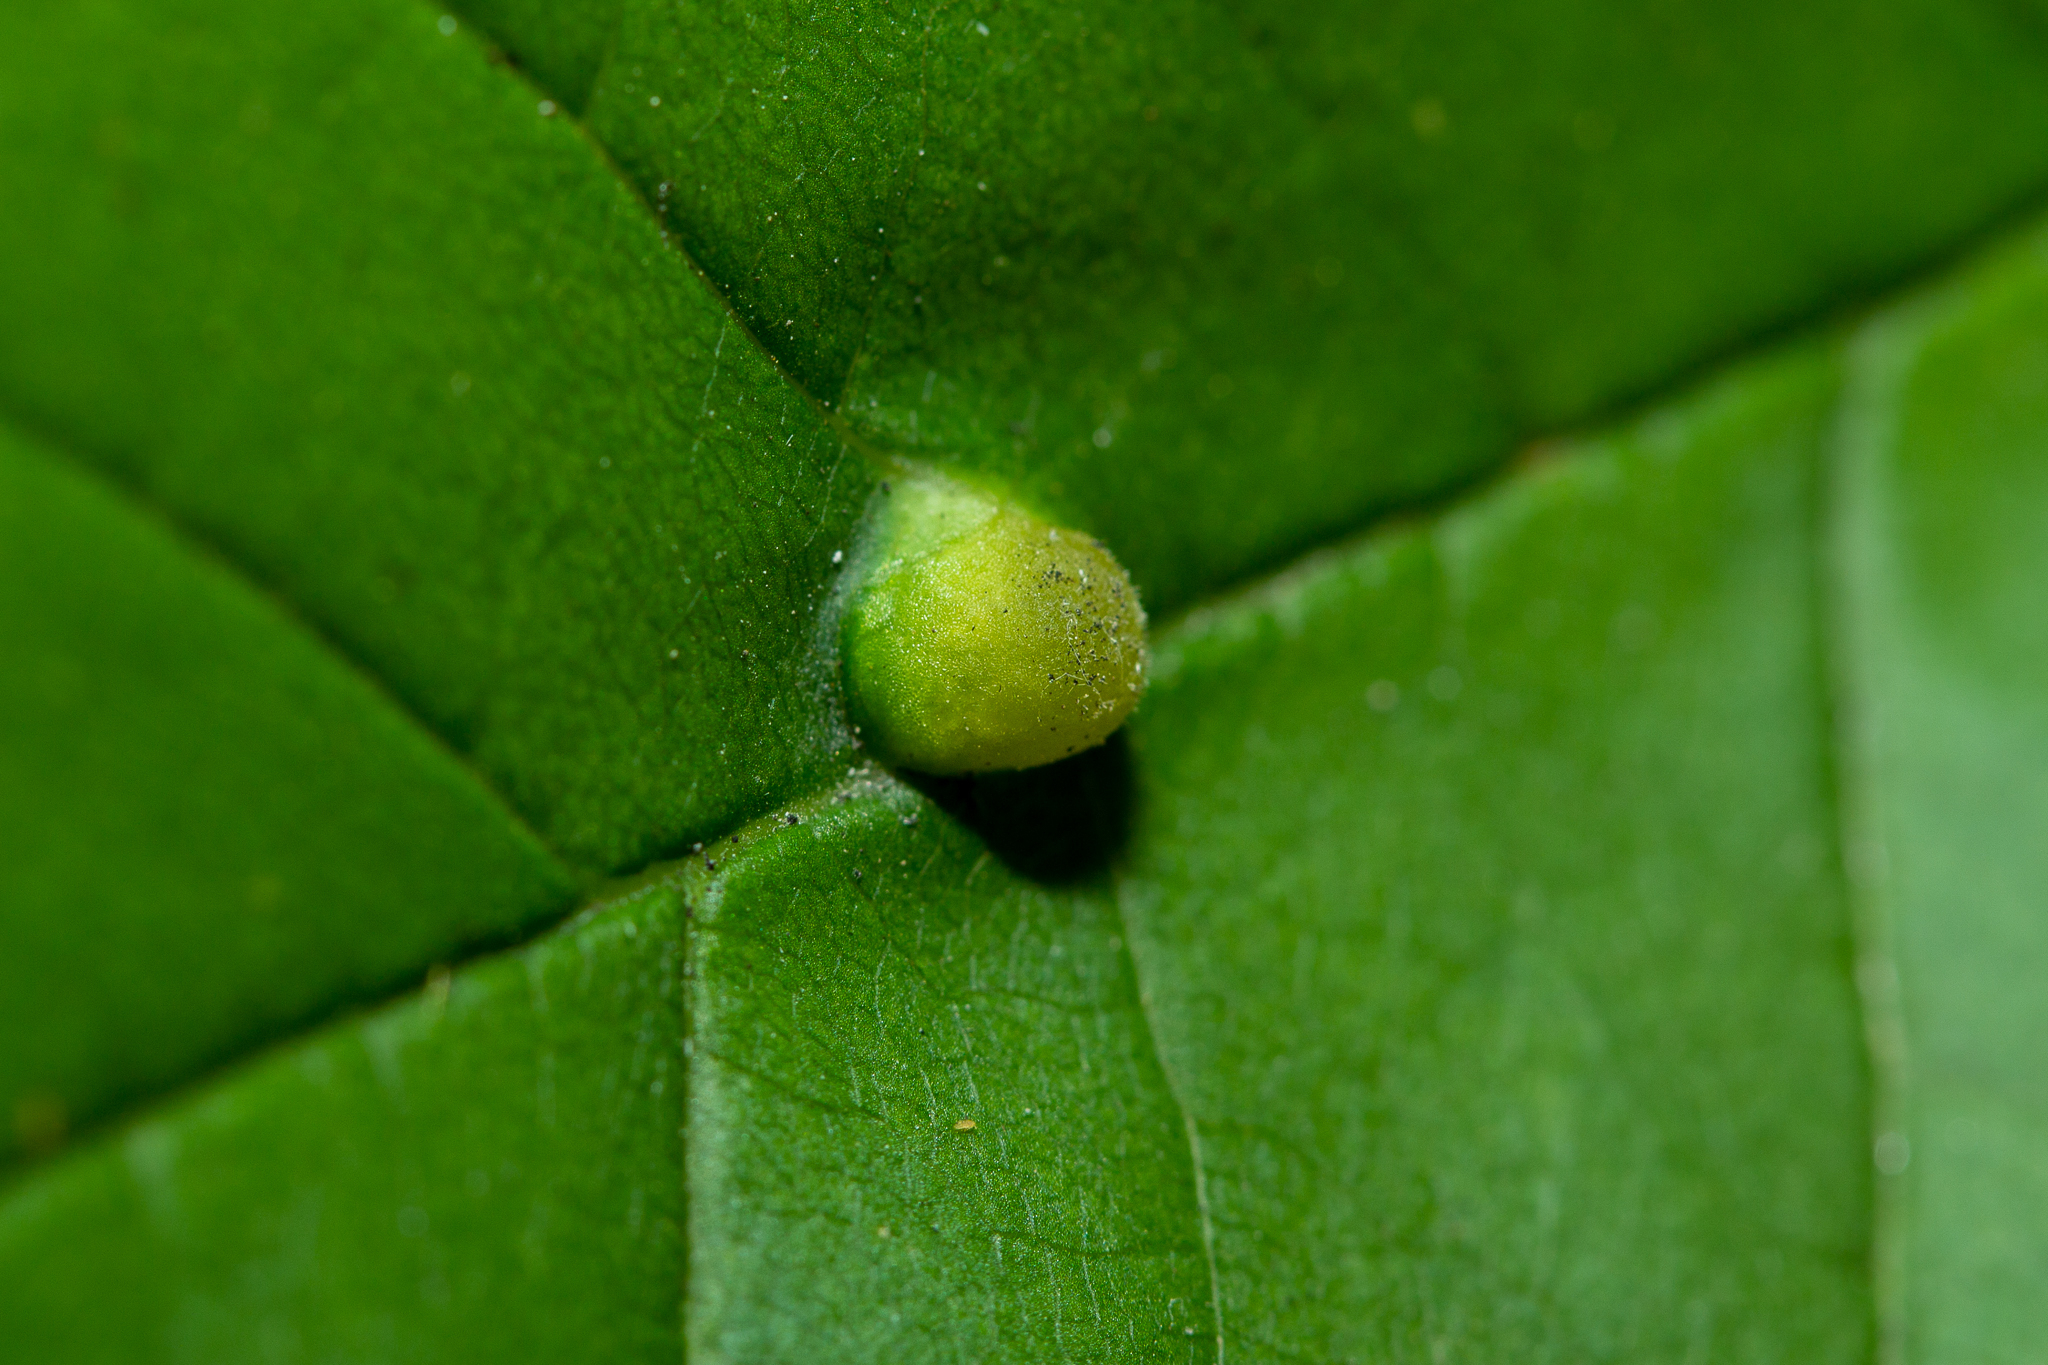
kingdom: Animalia
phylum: Arthropoda
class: Insecta
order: Diptera
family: Cecidomyiidae
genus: Dasineura
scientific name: Dasineura pellex
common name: Ash bullet gall midge
